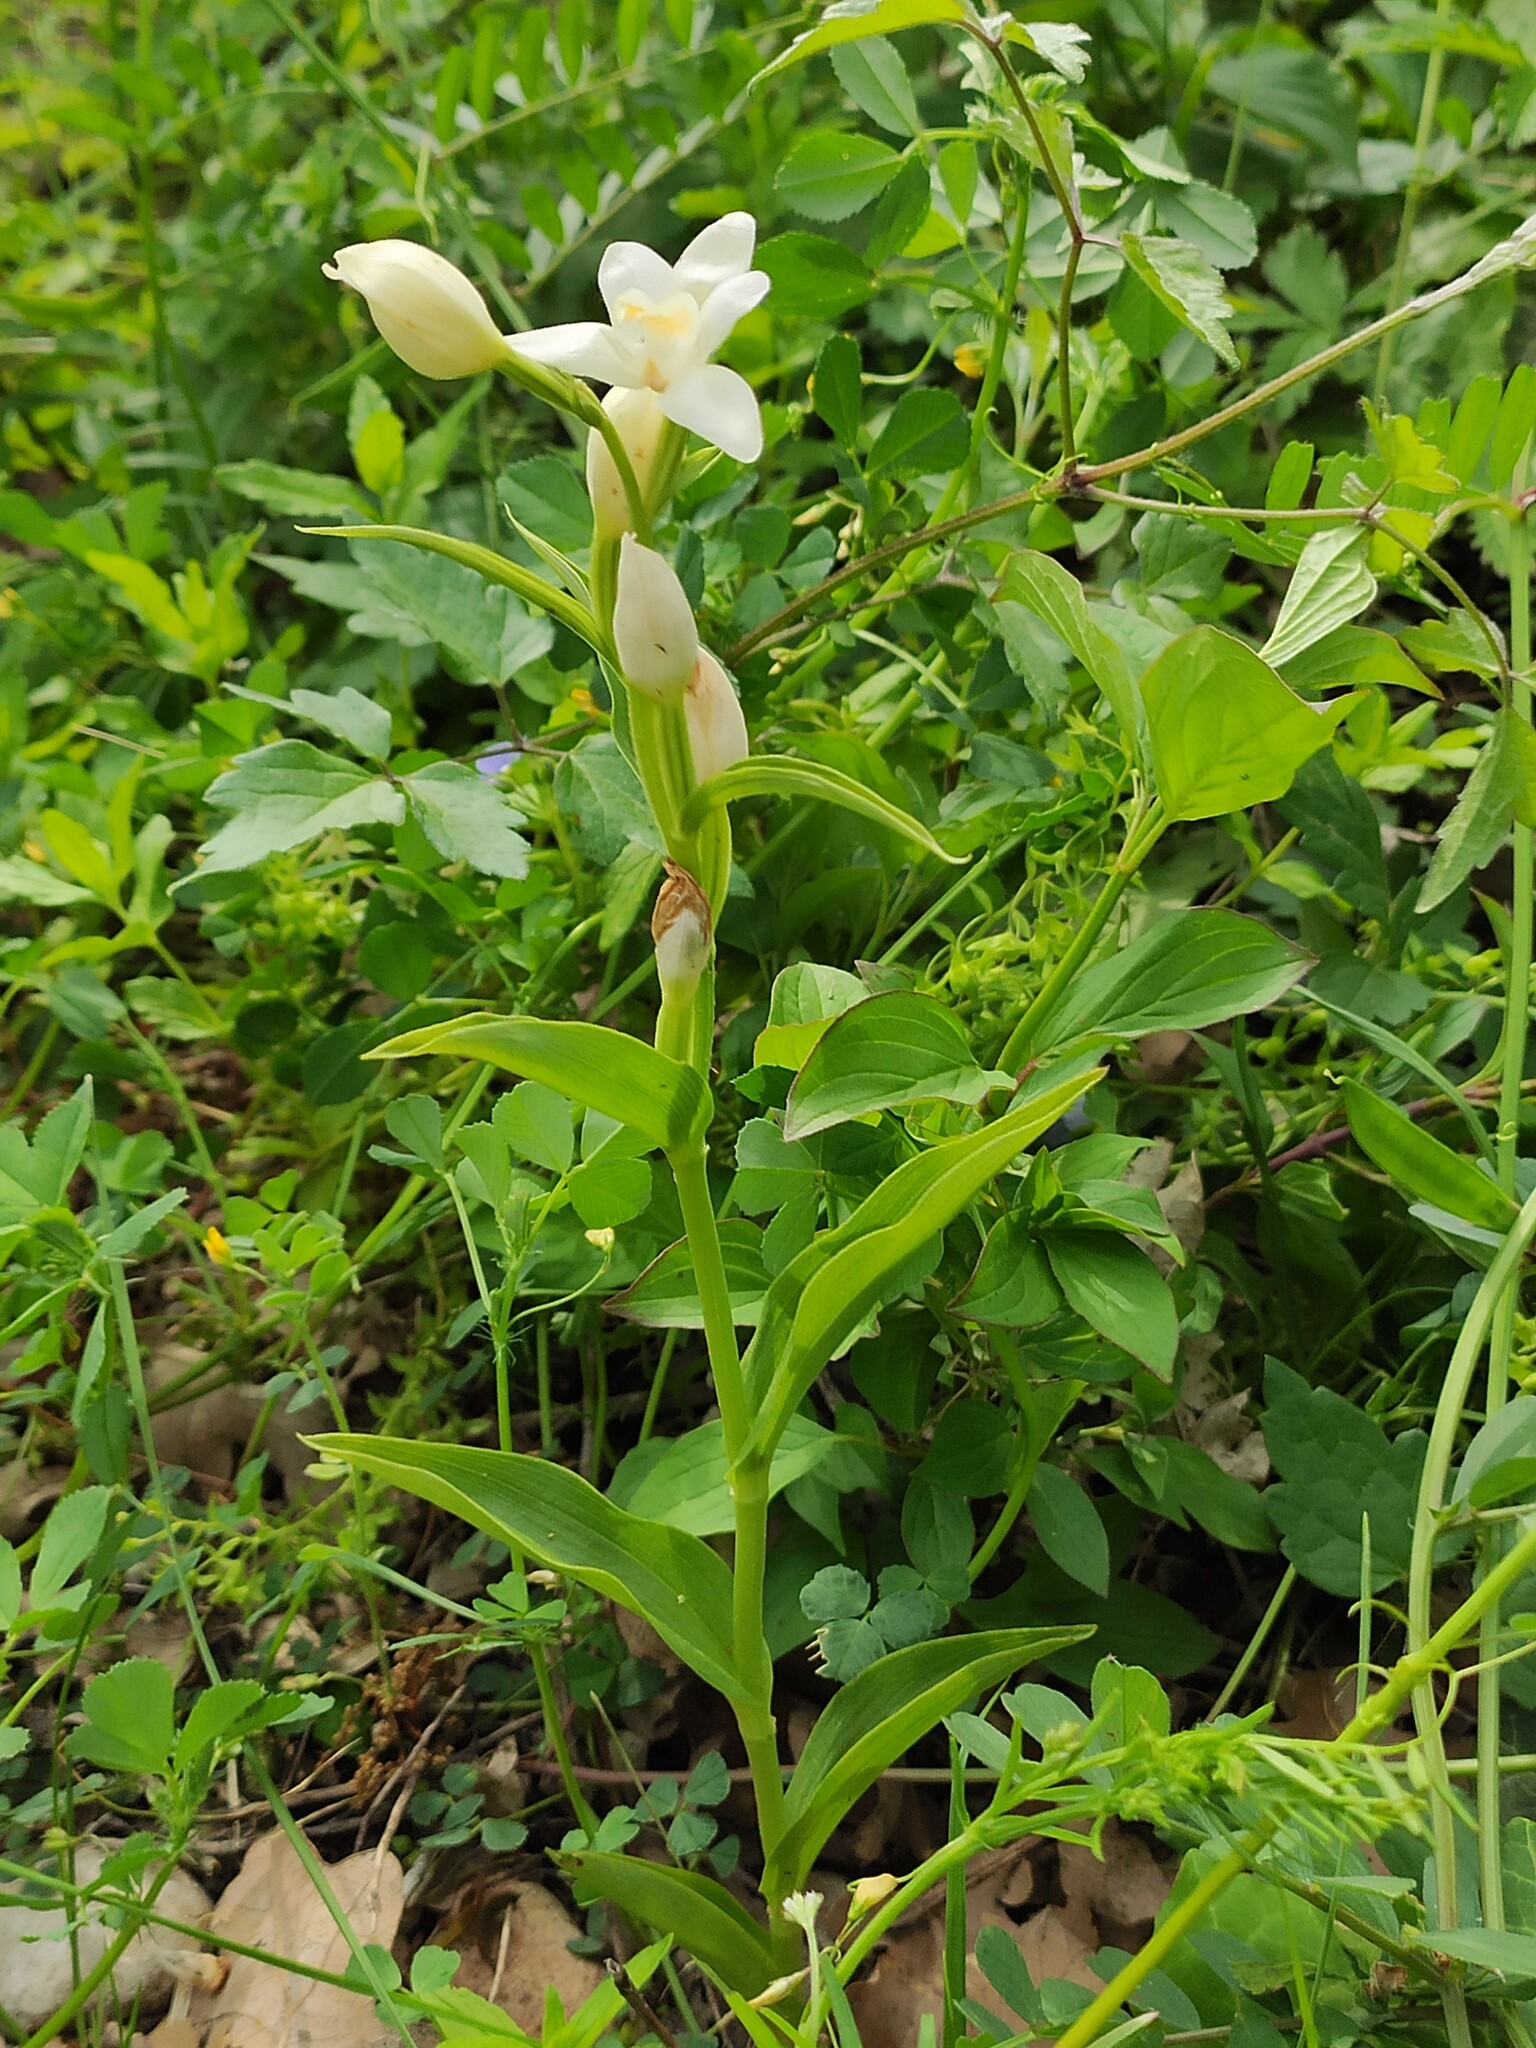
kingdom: Plantae
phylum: Tracheophyta
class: Liliopsida
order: Asparagales
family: Orchidaceae
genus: Cephalanthera
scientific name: Cephalanthera damasonium
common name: White helleborine
